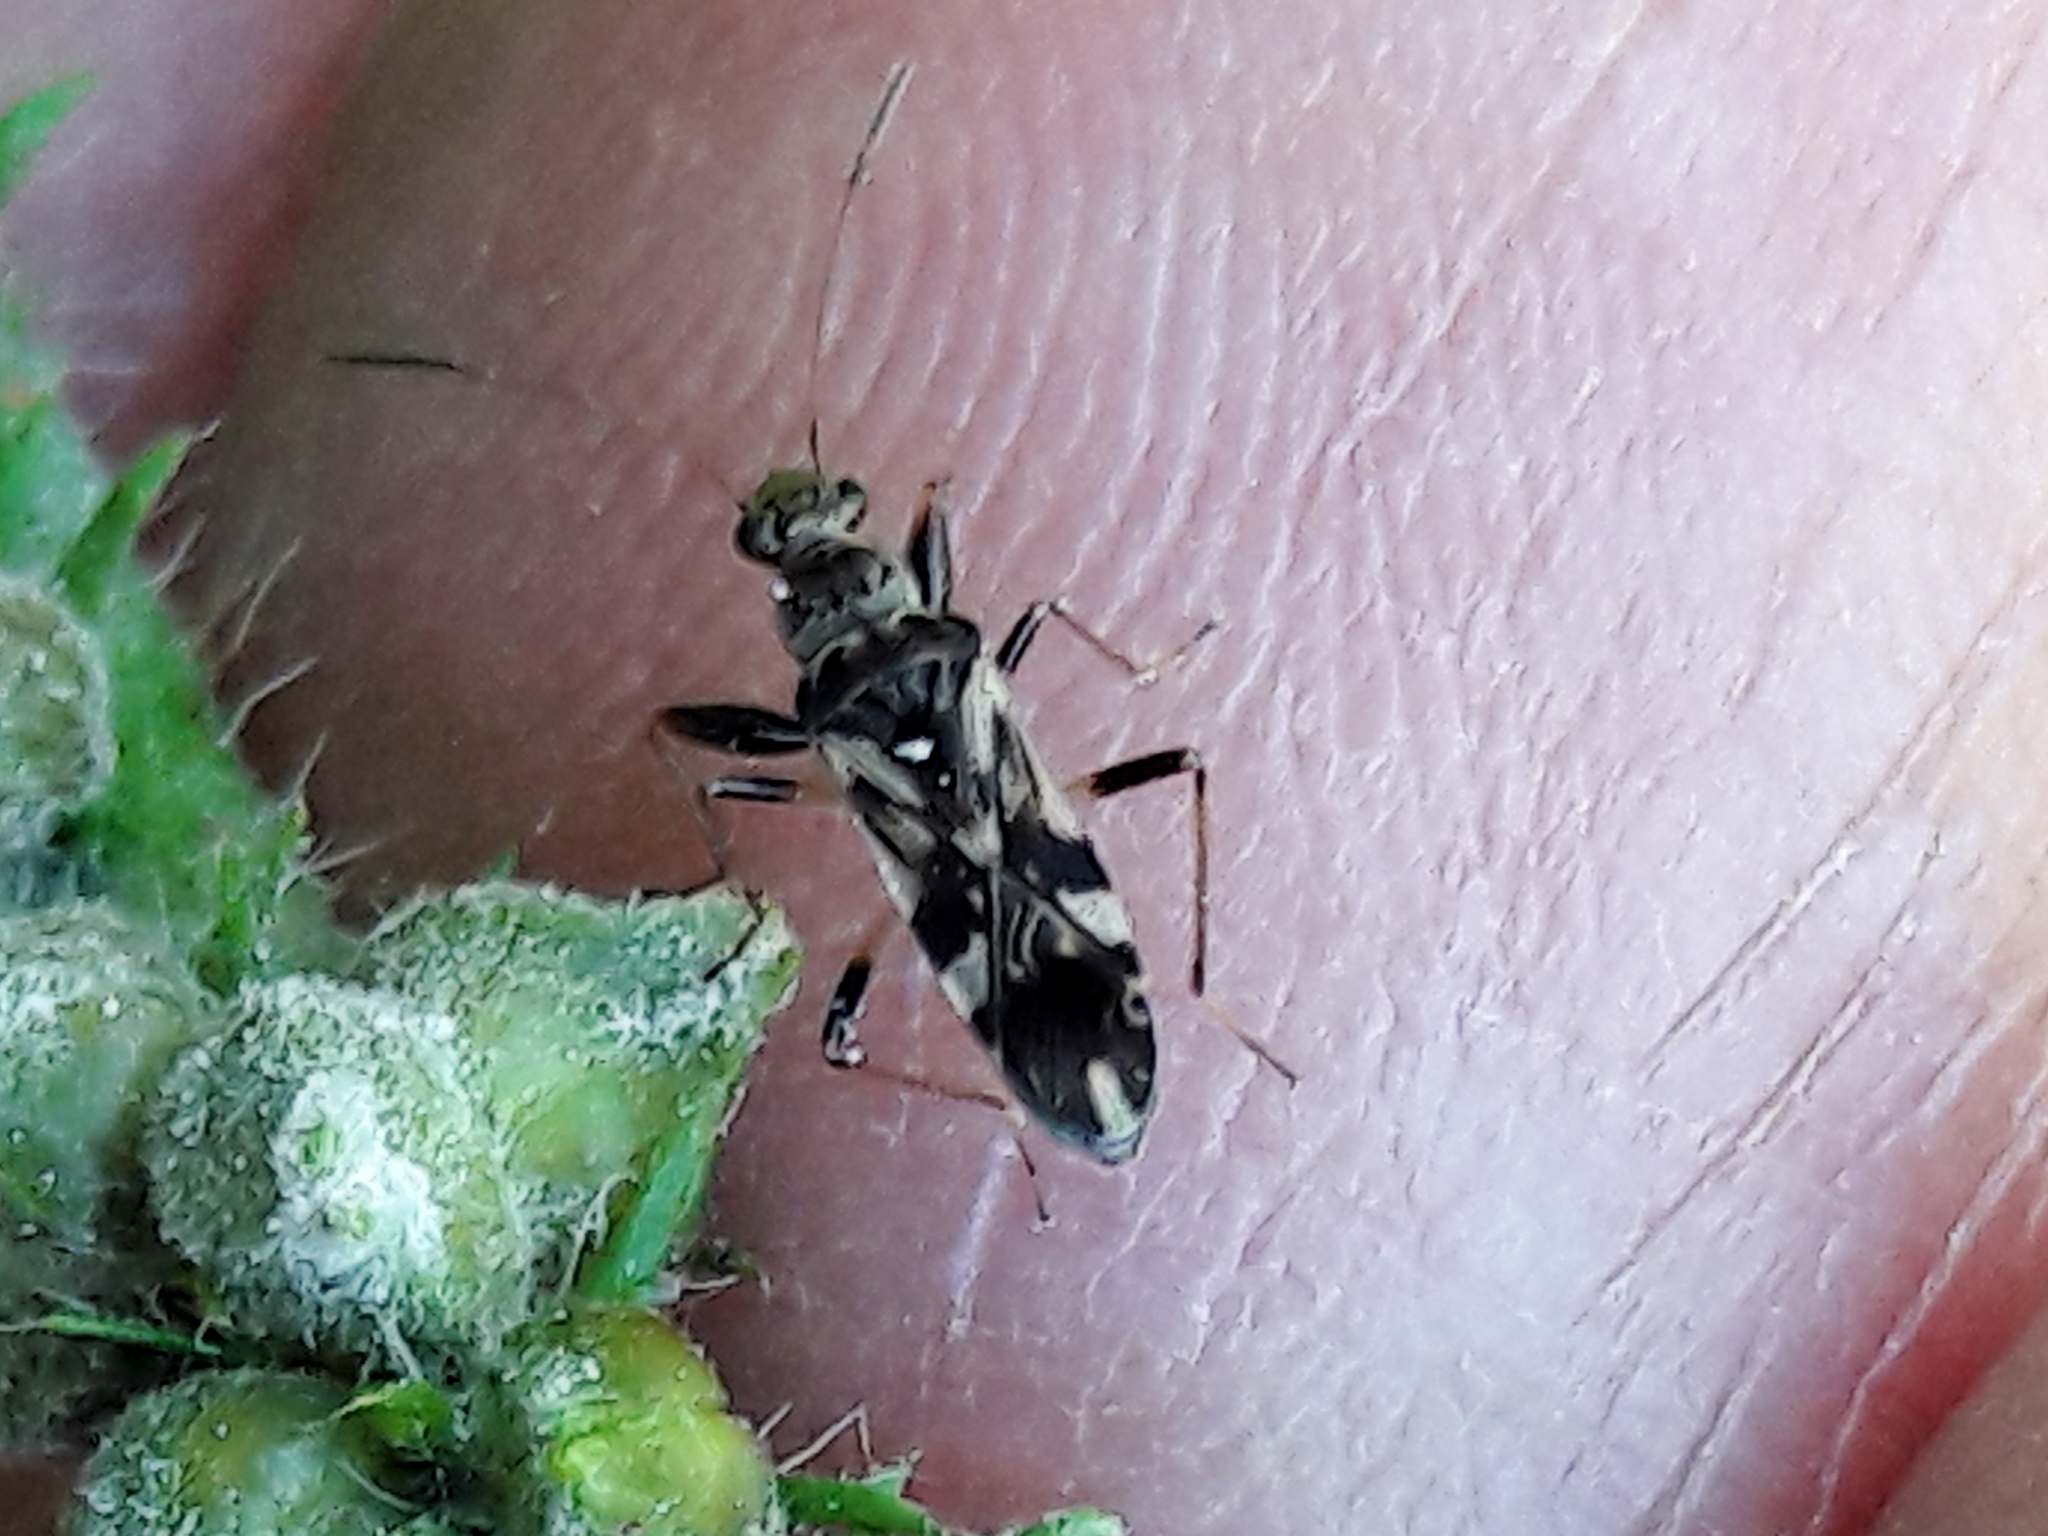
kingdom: Animalia
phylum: Arthropoda
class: Insecta
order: Hemiptera
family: Rhyparochromidae
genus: Neopamera
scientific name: Neopamera bilobata
